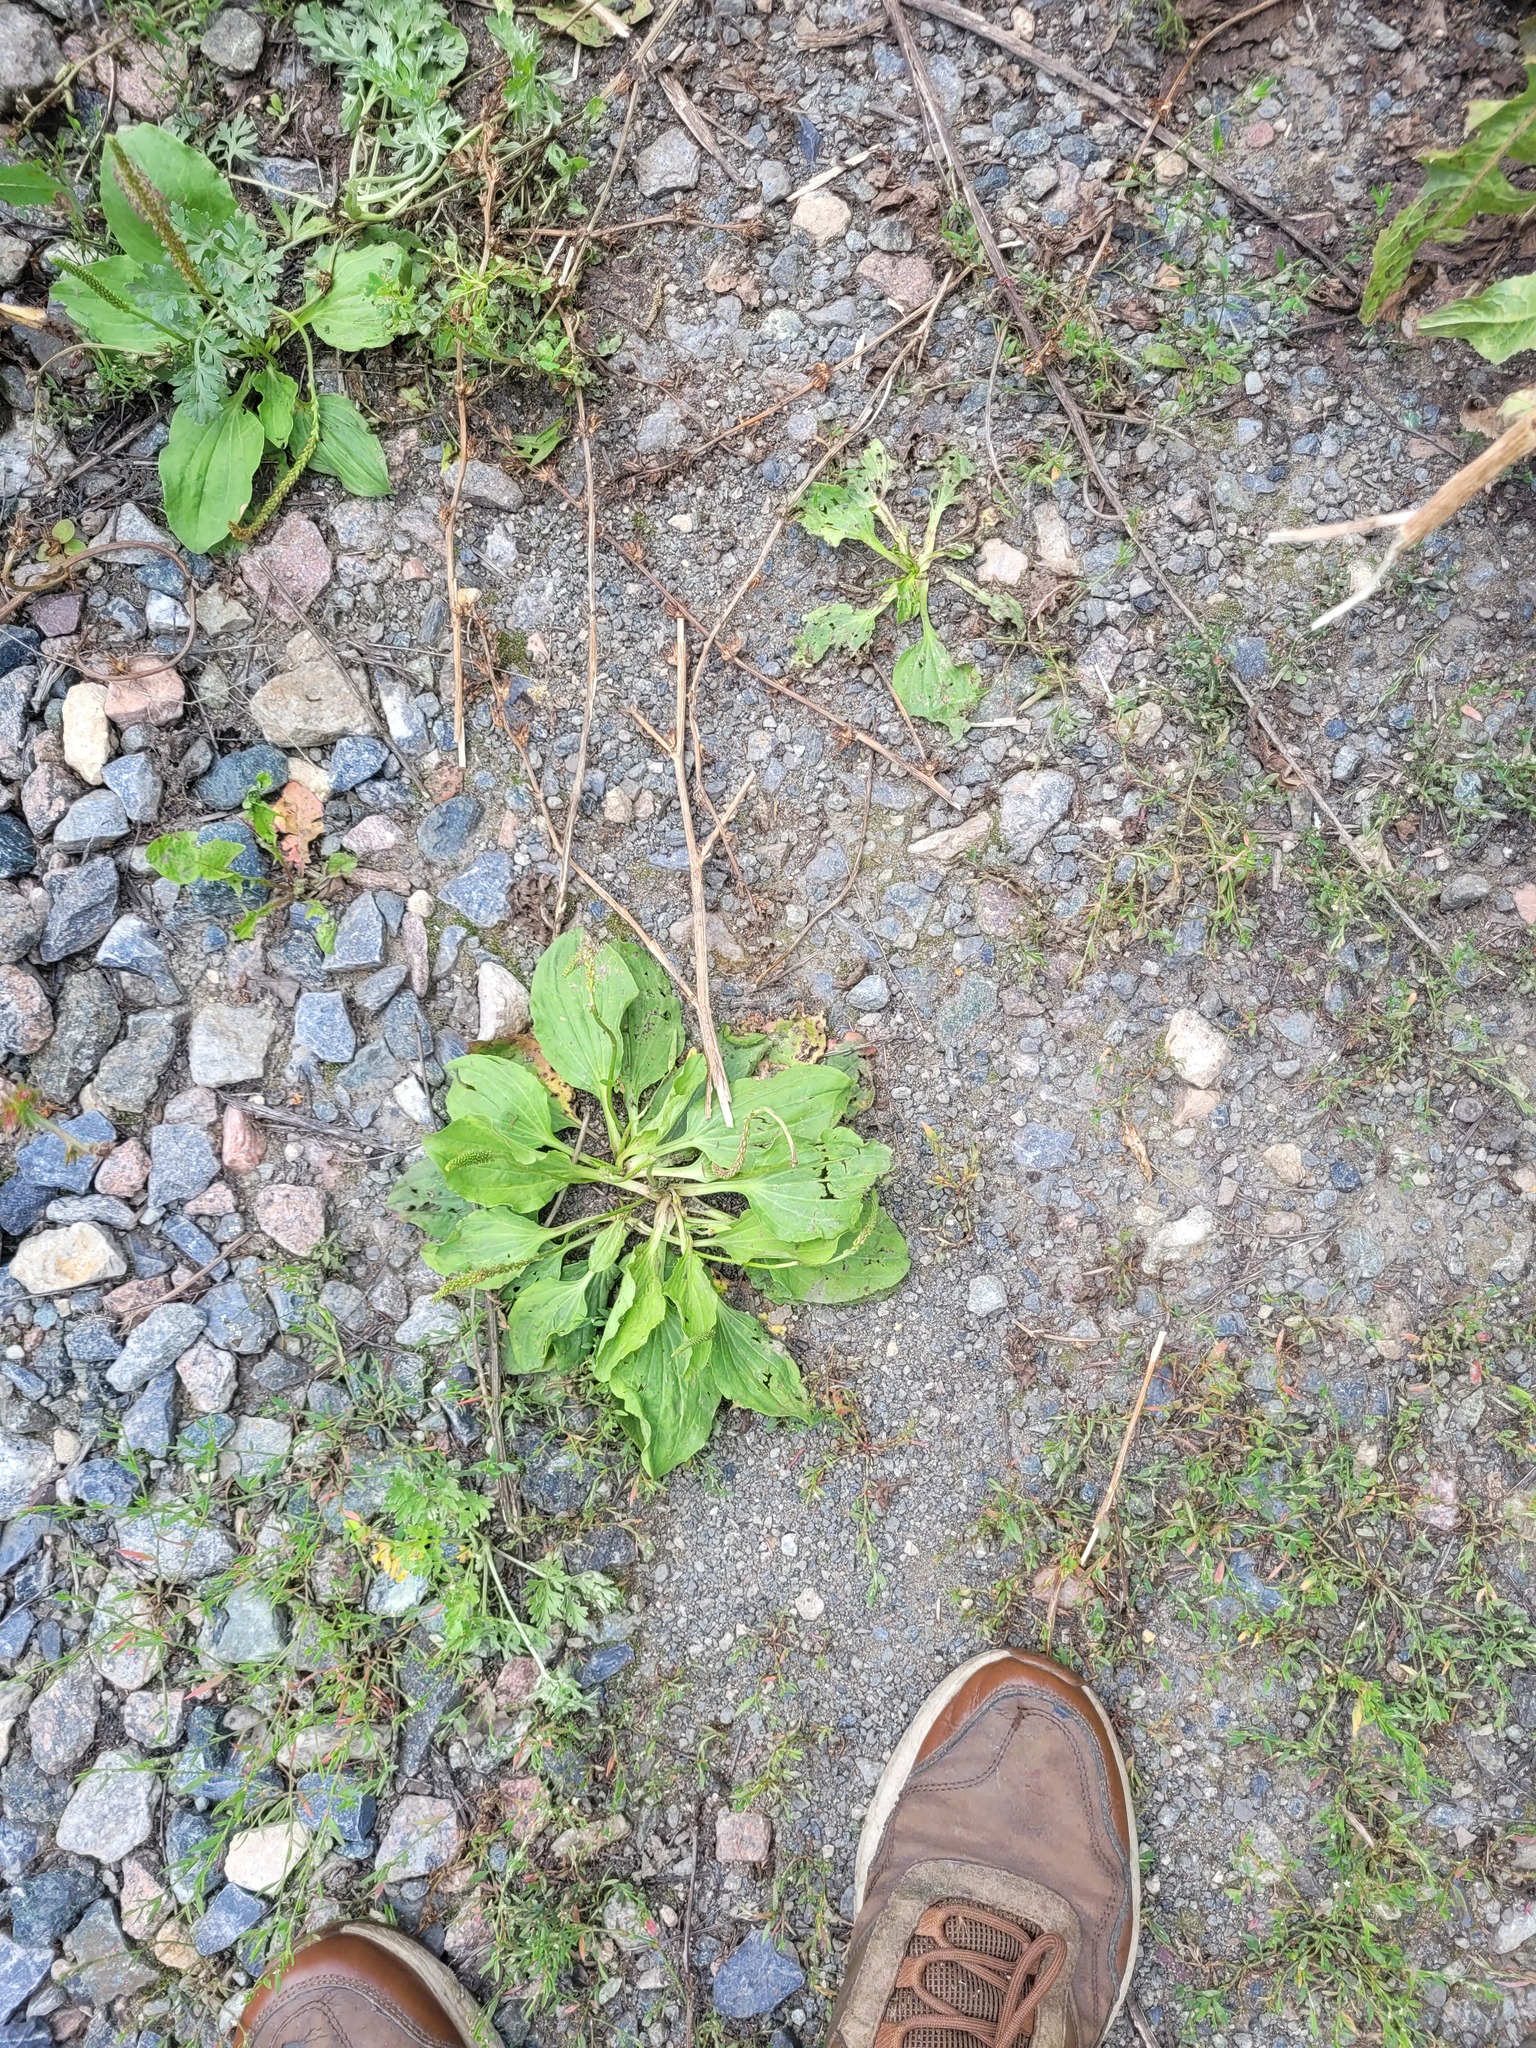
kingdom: Plantae
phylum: Tracheophyta
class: Magnoliopsida
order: Lamiales
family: Plantaginaceae
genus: Plantago
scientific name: Plantago major
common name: Common plantain
